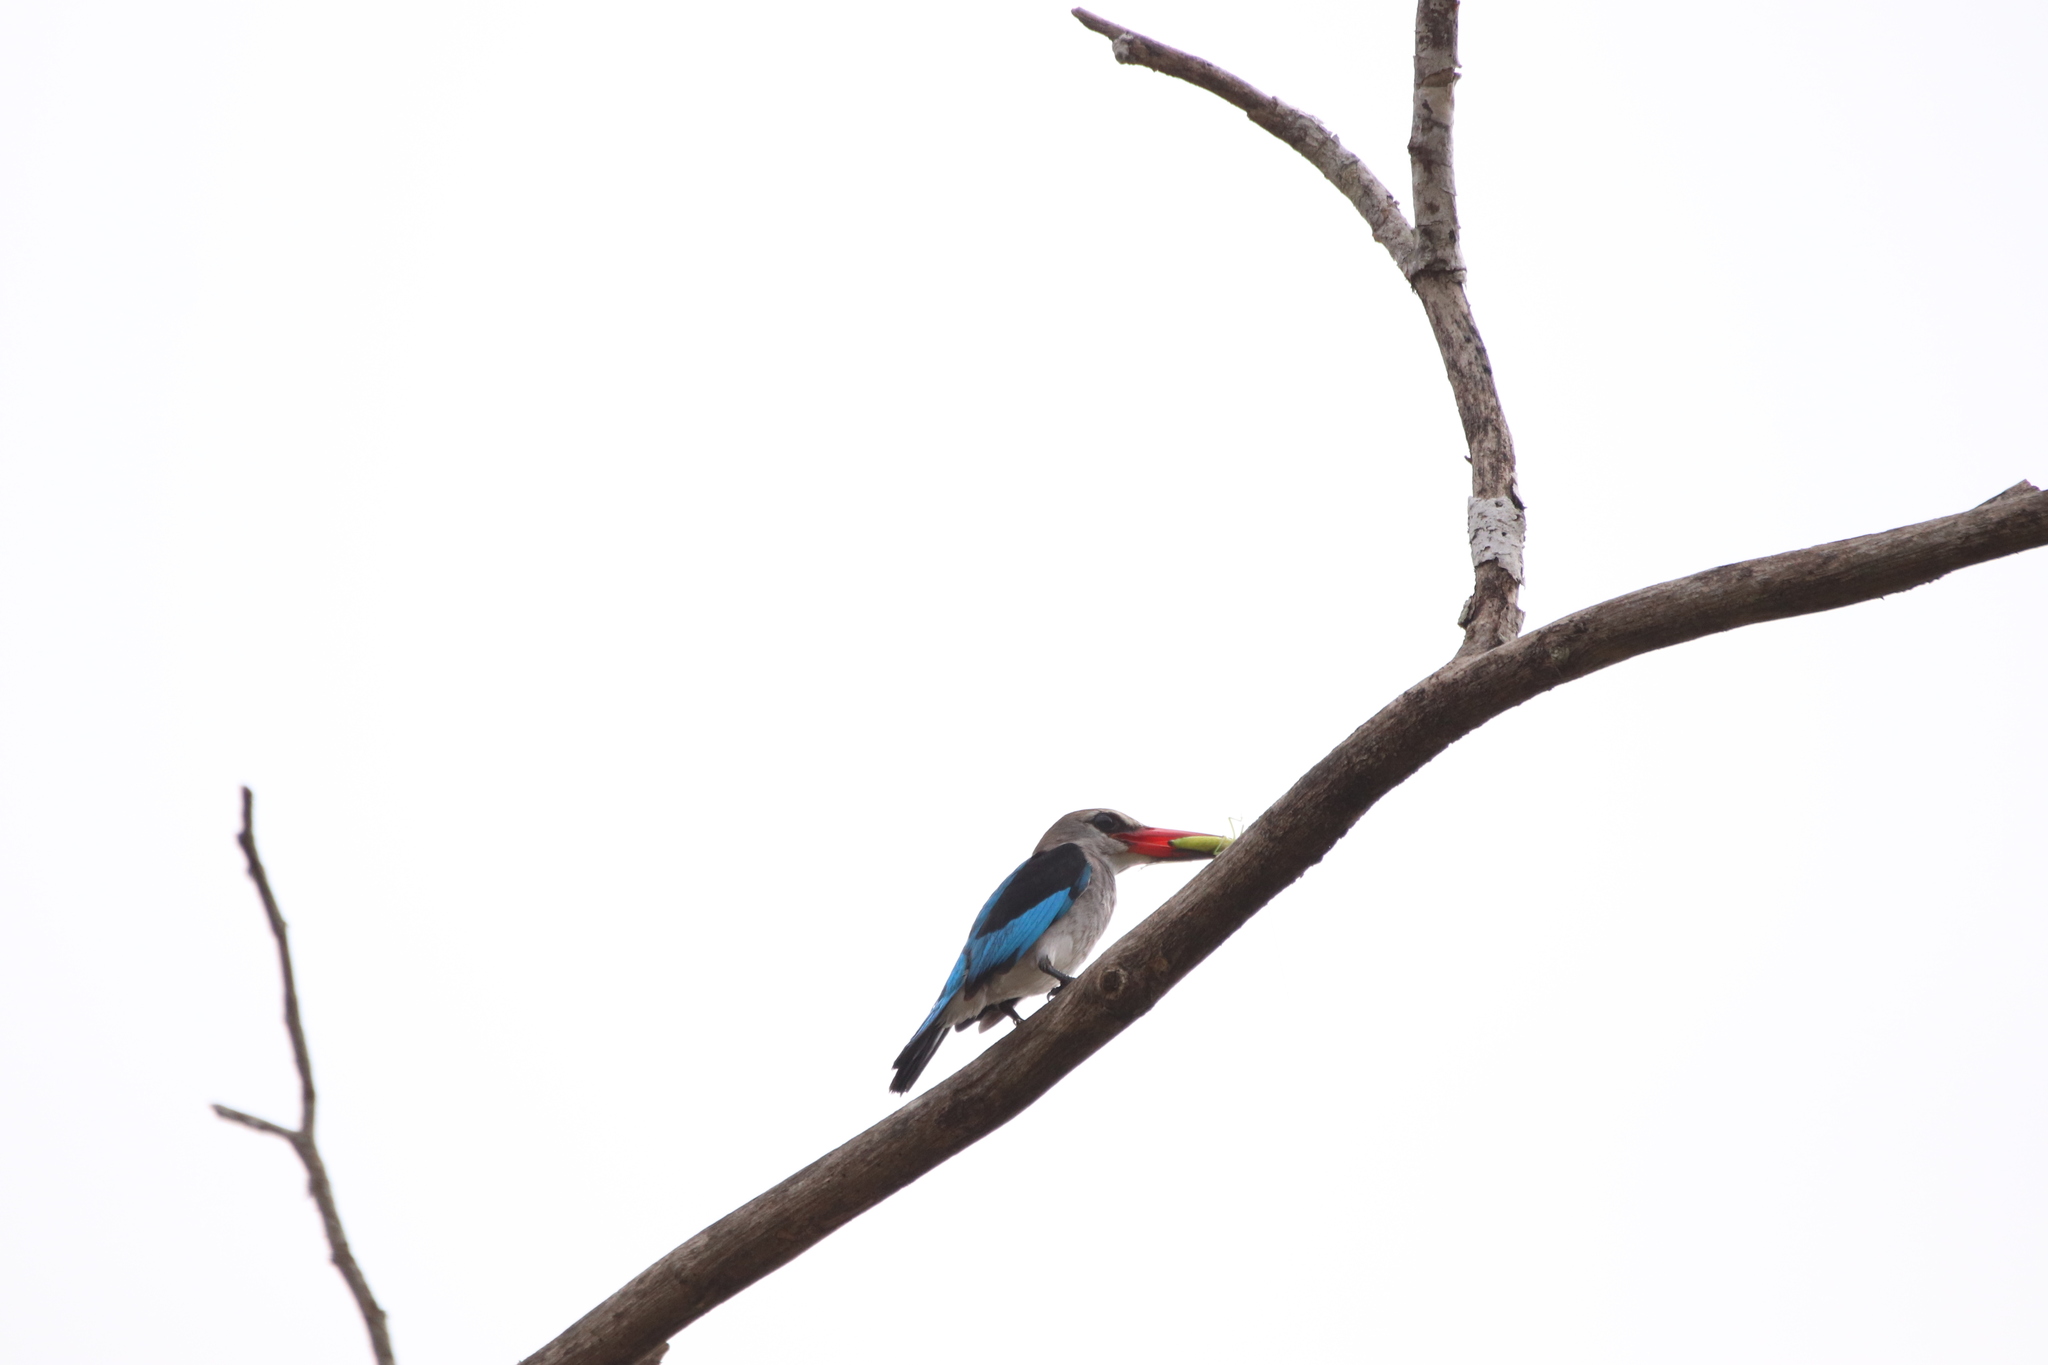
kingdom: Animalia
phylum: Chordata
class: Aves
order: Coraciiformes
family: Alcedinidae
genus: Halcyon
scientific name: Halcyon senegalensis
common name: Woodland kingfisher
